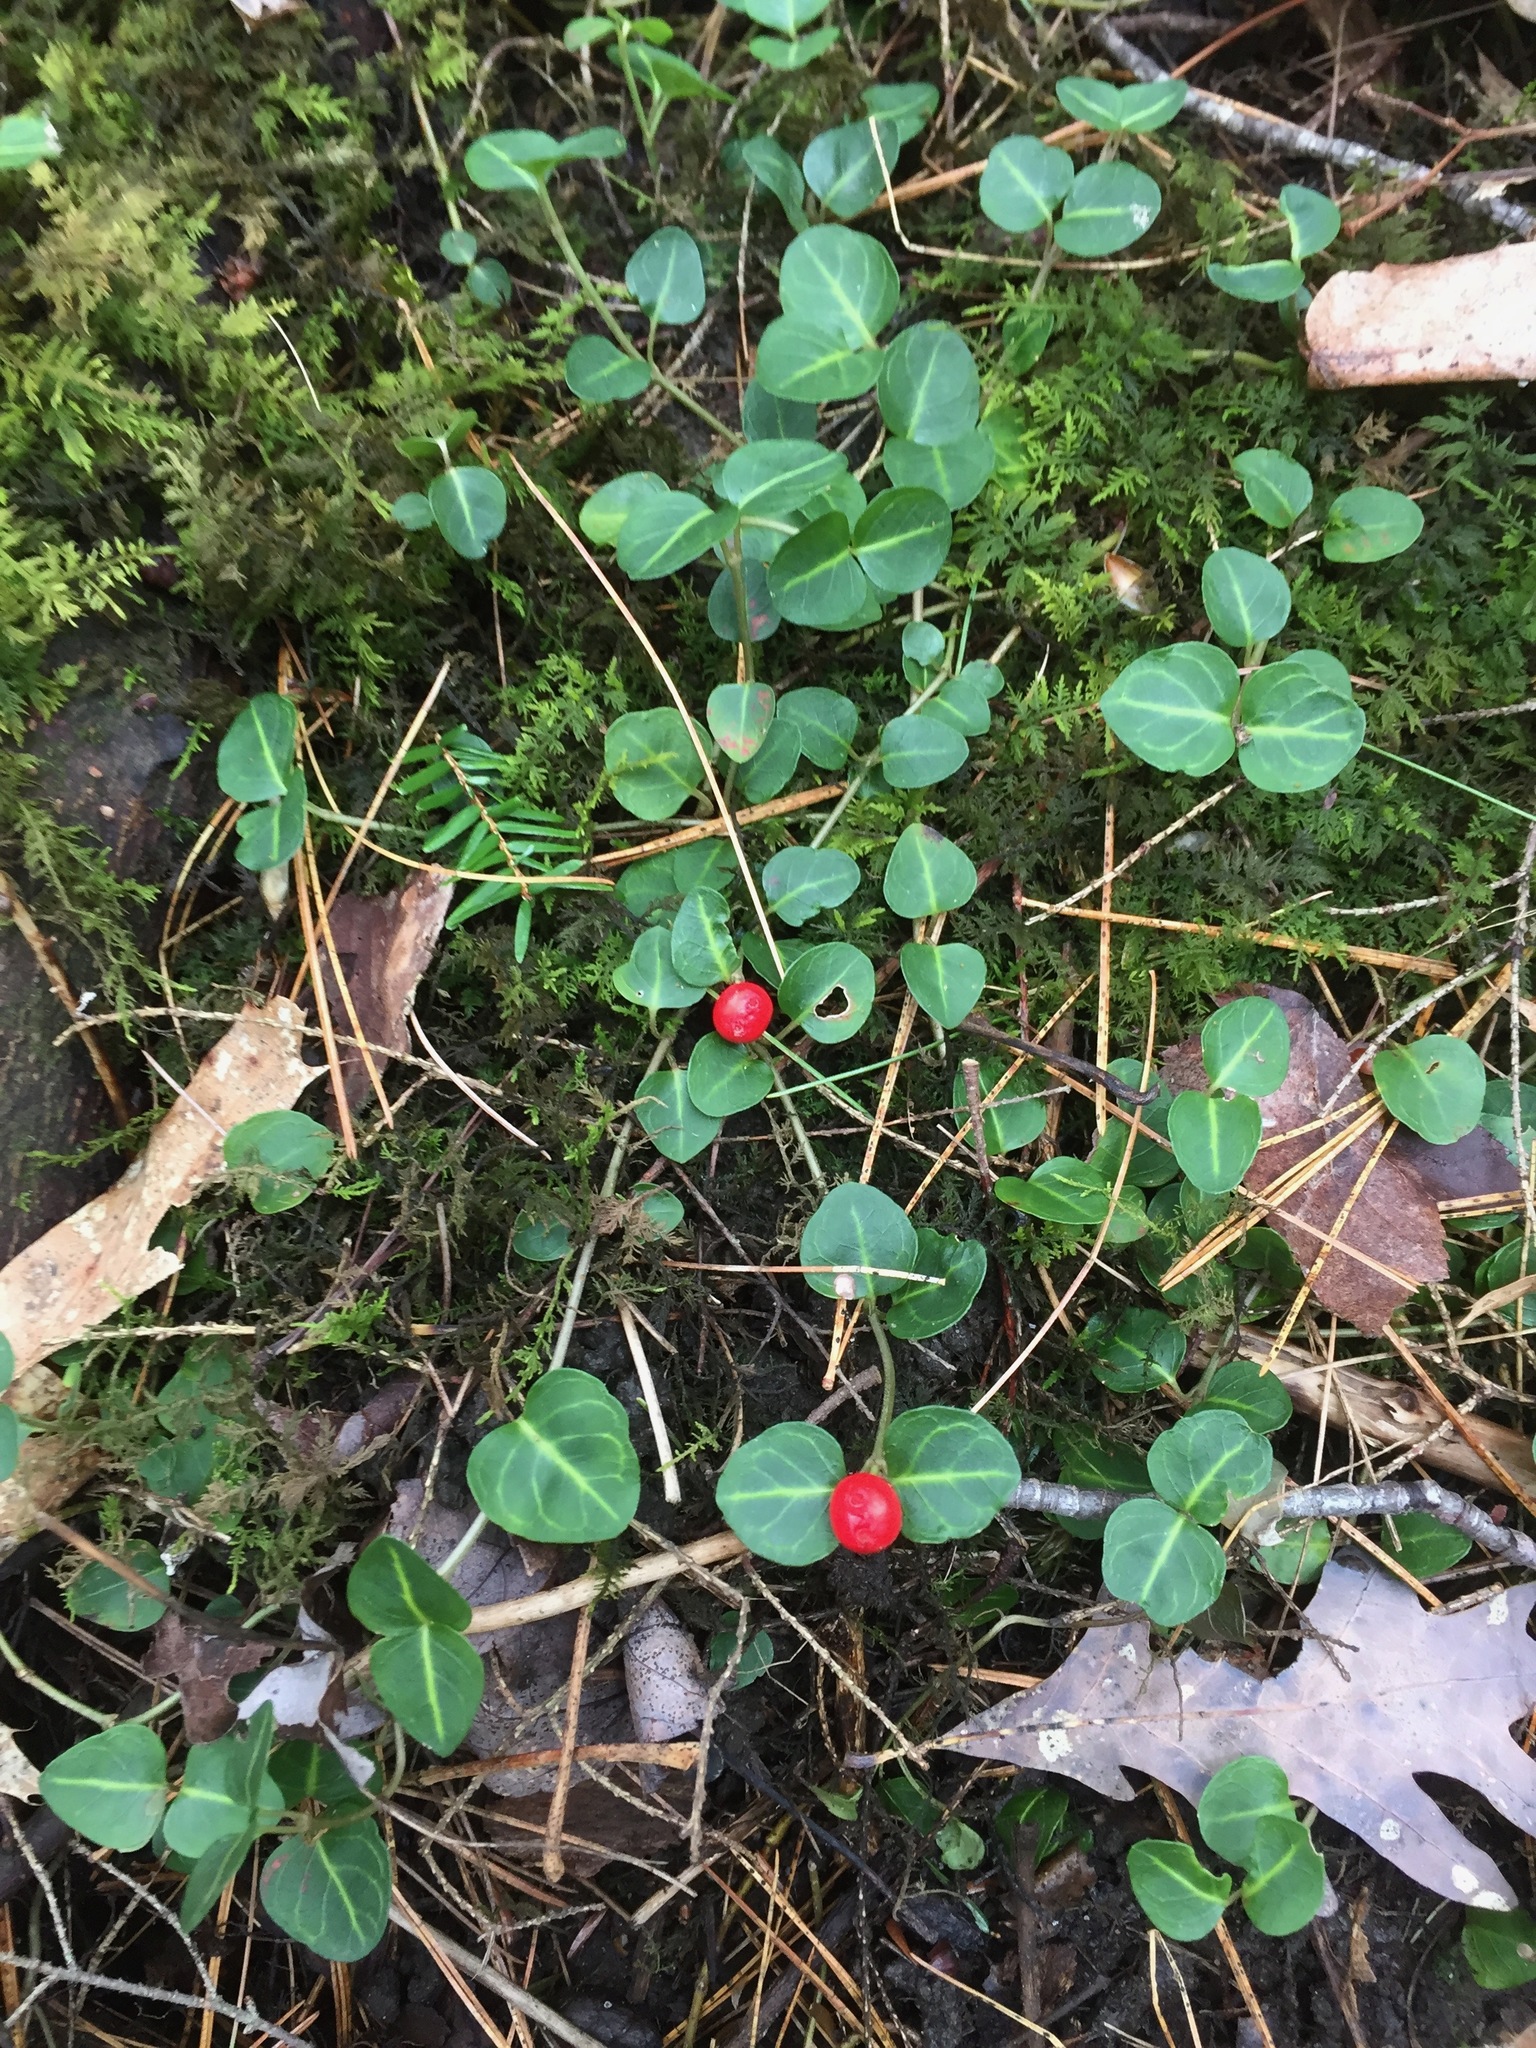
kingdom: Plantae
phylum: Tracheophyta
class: Magnoliopsida
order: Gentianales
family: Rubiaceae
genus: Mitchella
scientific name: Mitchella repens
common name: Partridge-berry
